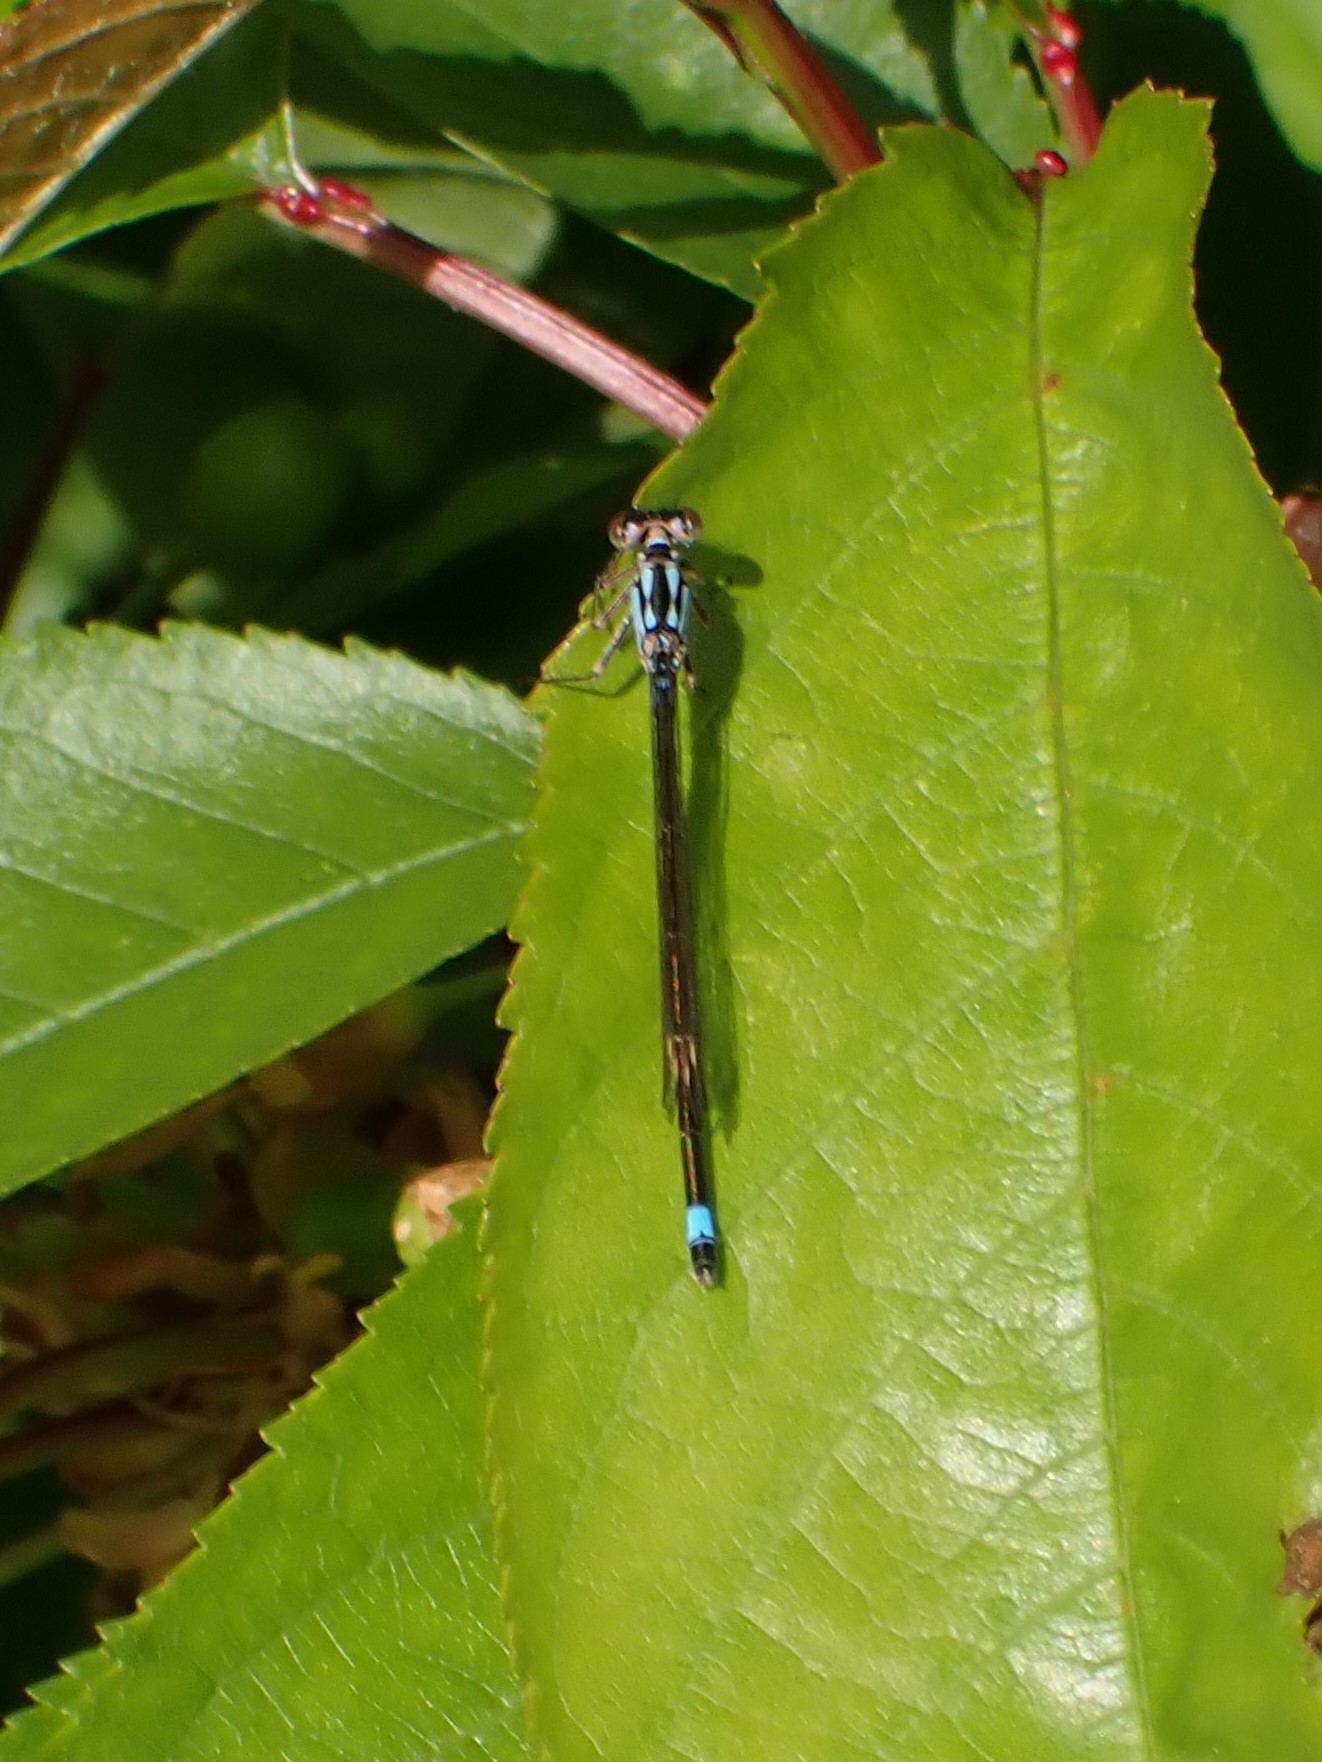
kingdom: Animalia
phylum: Arthropoda
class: Insecta
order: Odonata
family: Coenagrionidae
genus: Ischnura
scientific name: Ischnura cervula
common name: Pacific forktail
